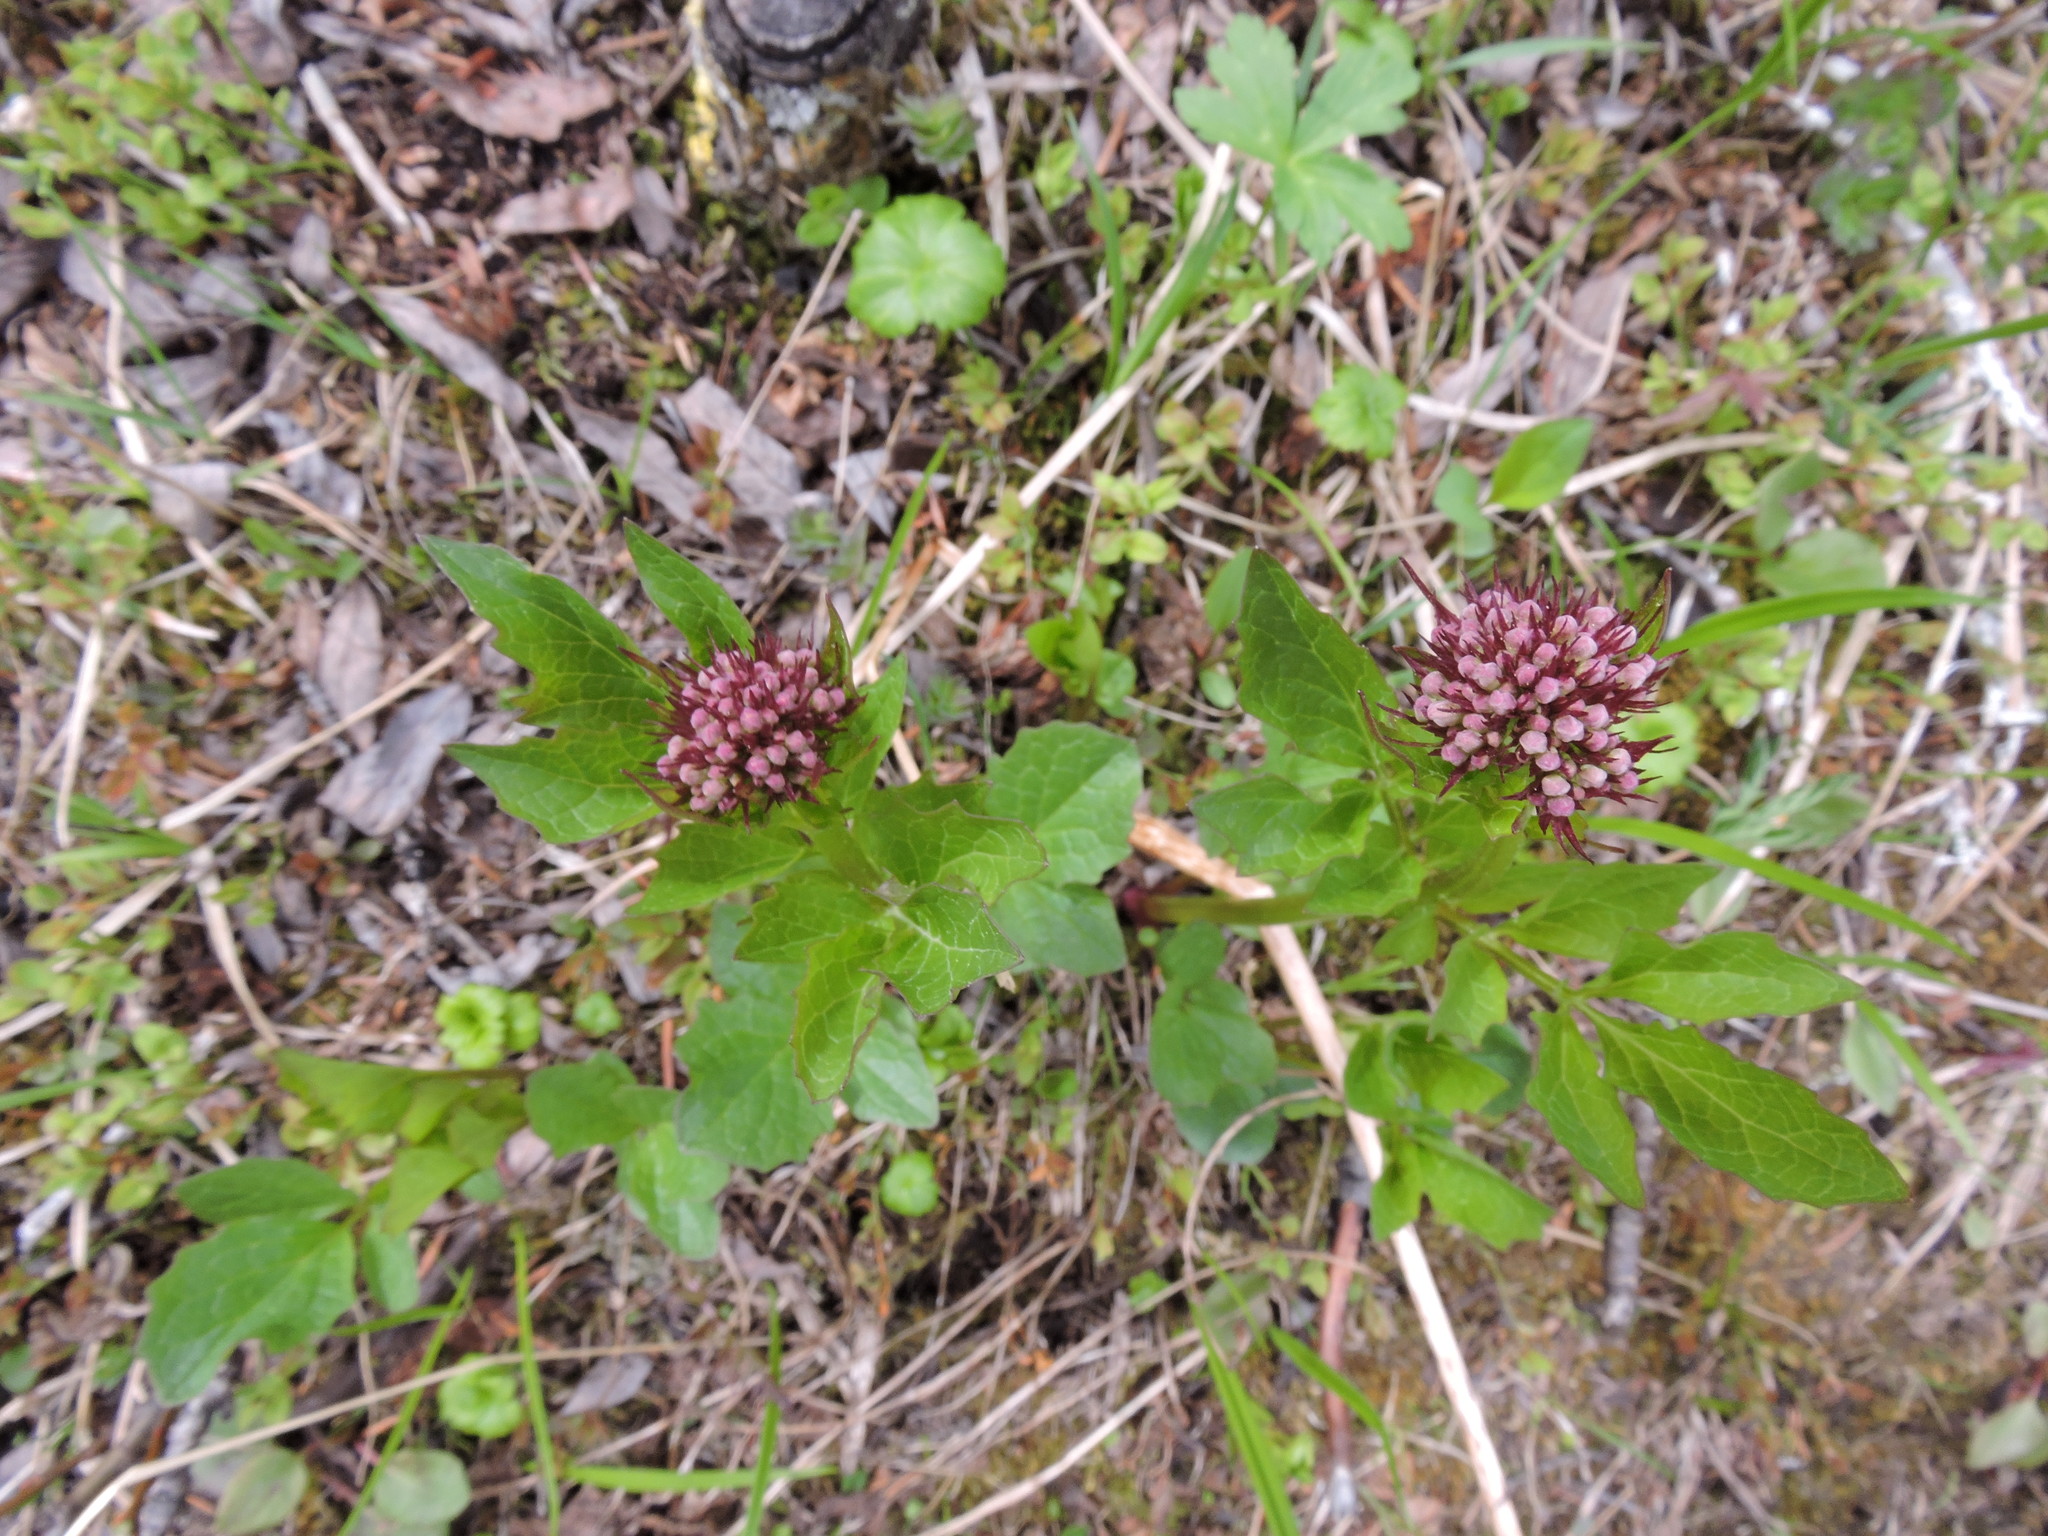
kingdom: Plantae
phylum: Tracheophyta
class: Magnoliopsida
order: Dipsacales
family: Caprifoliaceae
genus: Valeriana
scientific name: Valeriana sitchensis
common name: Pacific valerian
